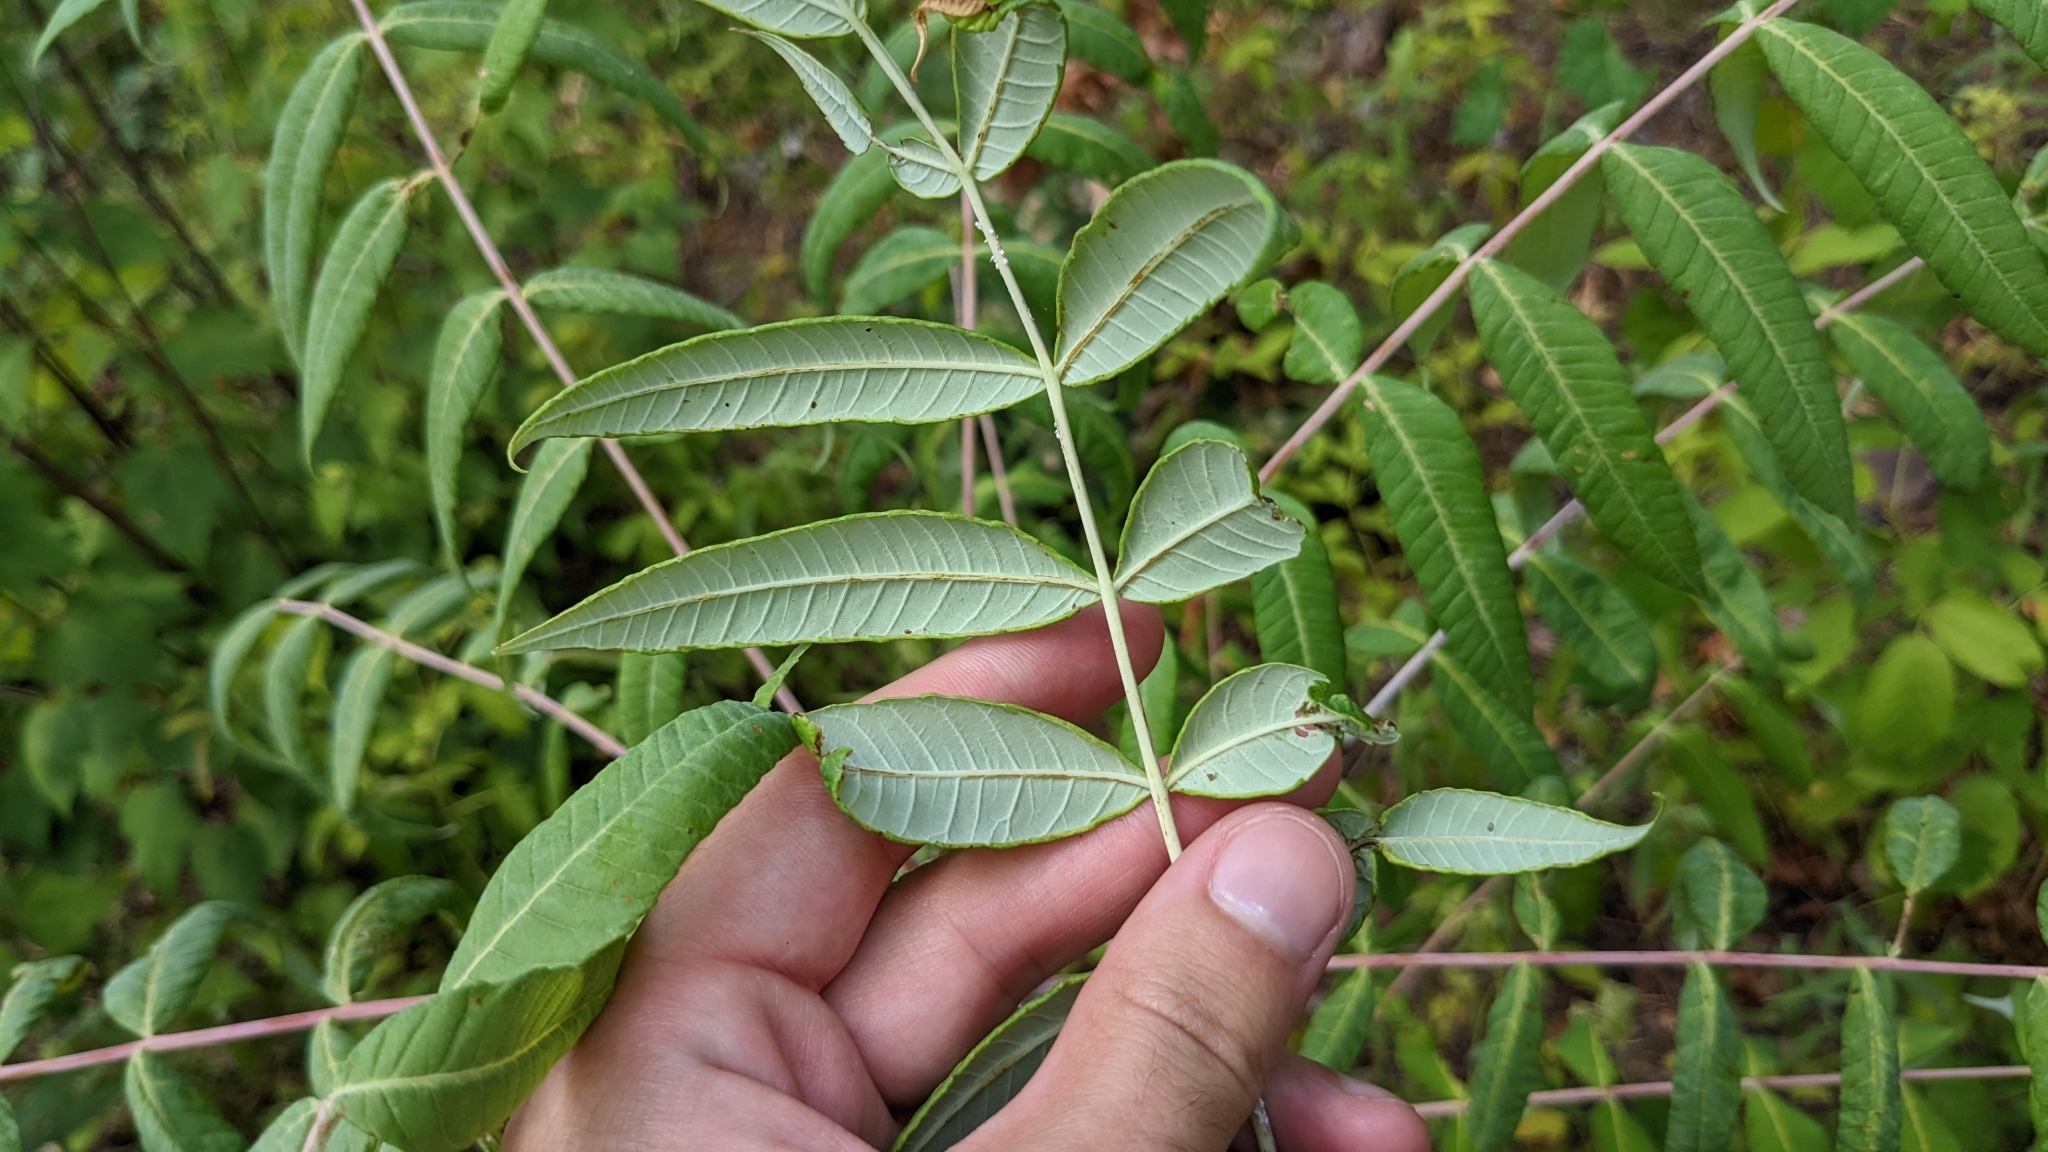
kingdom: Plantae
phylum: Tracheophyta
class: Magnoliopsida
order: Sapindales
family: Anacardiaceae
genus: Rhus
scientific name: Rhus glabra
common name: Scarlet sumac
